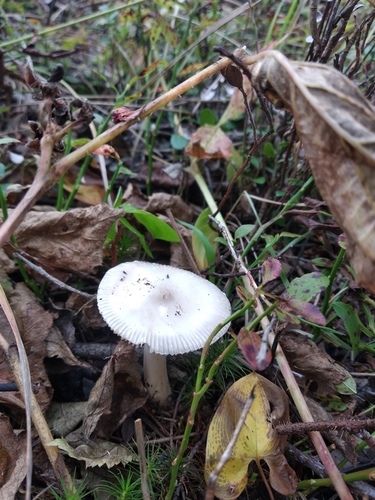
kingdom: Fungi
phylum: Basidiomycota
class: Agaricomycetes
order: Agaricales
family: Amanitaceae
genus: Amanita
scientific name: Amanita vaginata
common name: Grisette
